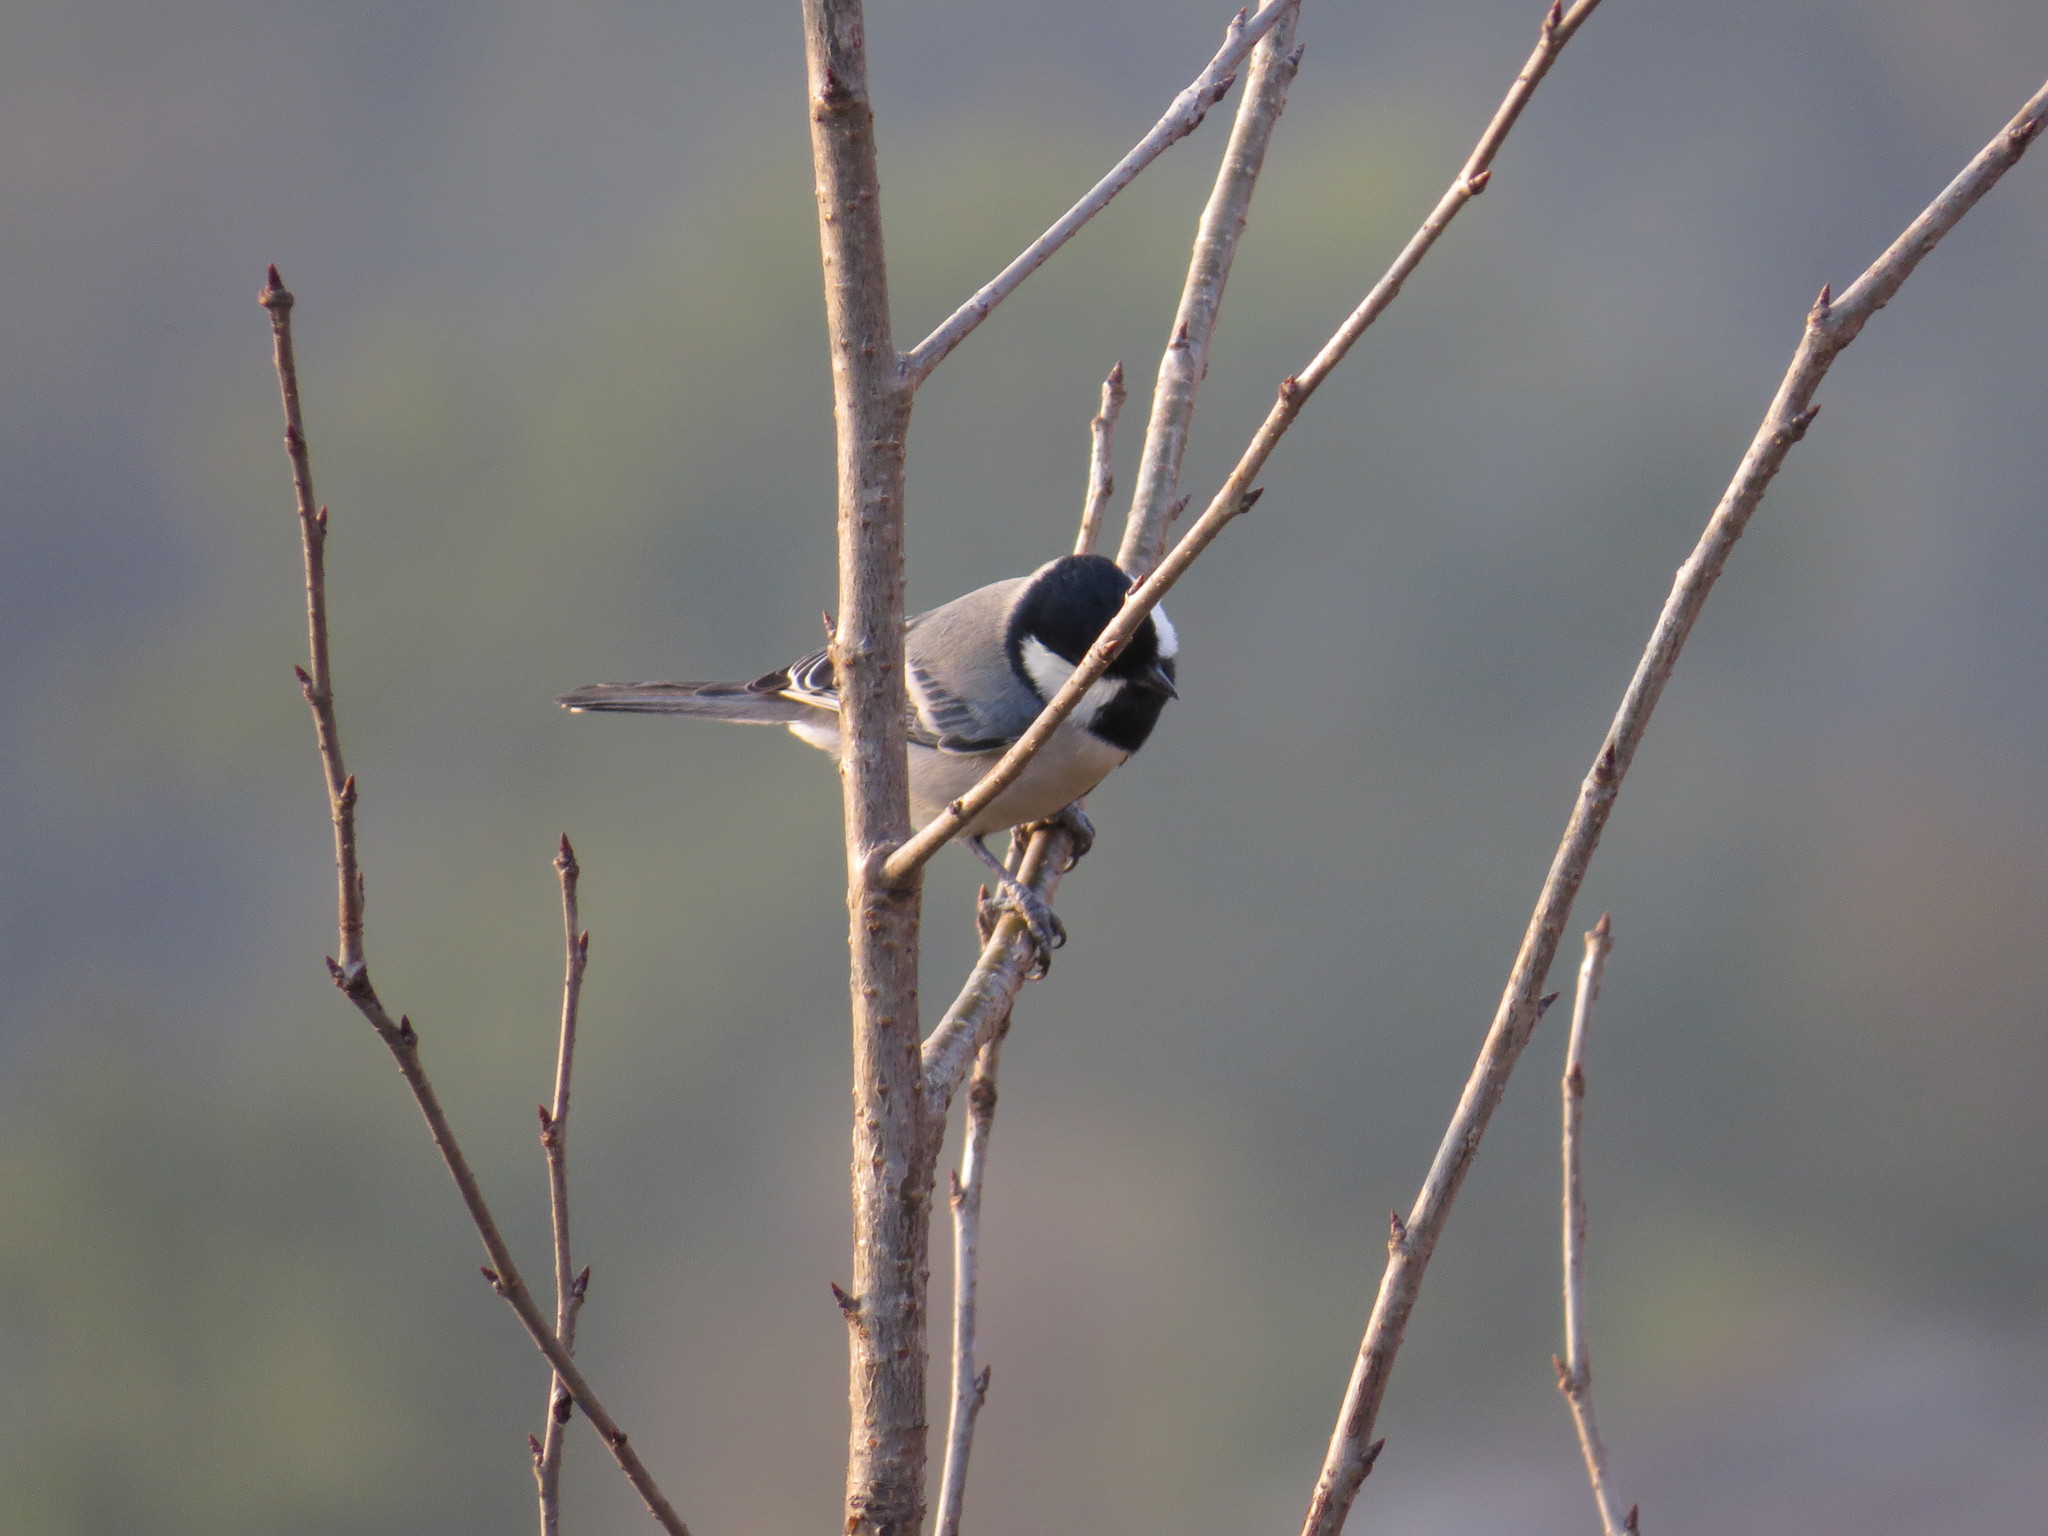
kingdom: Animalia
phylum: Chordata
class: Aves
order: Passeriformes
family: Paridae
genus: Parus
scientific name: Parus cinereus
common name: Cinereous tit
